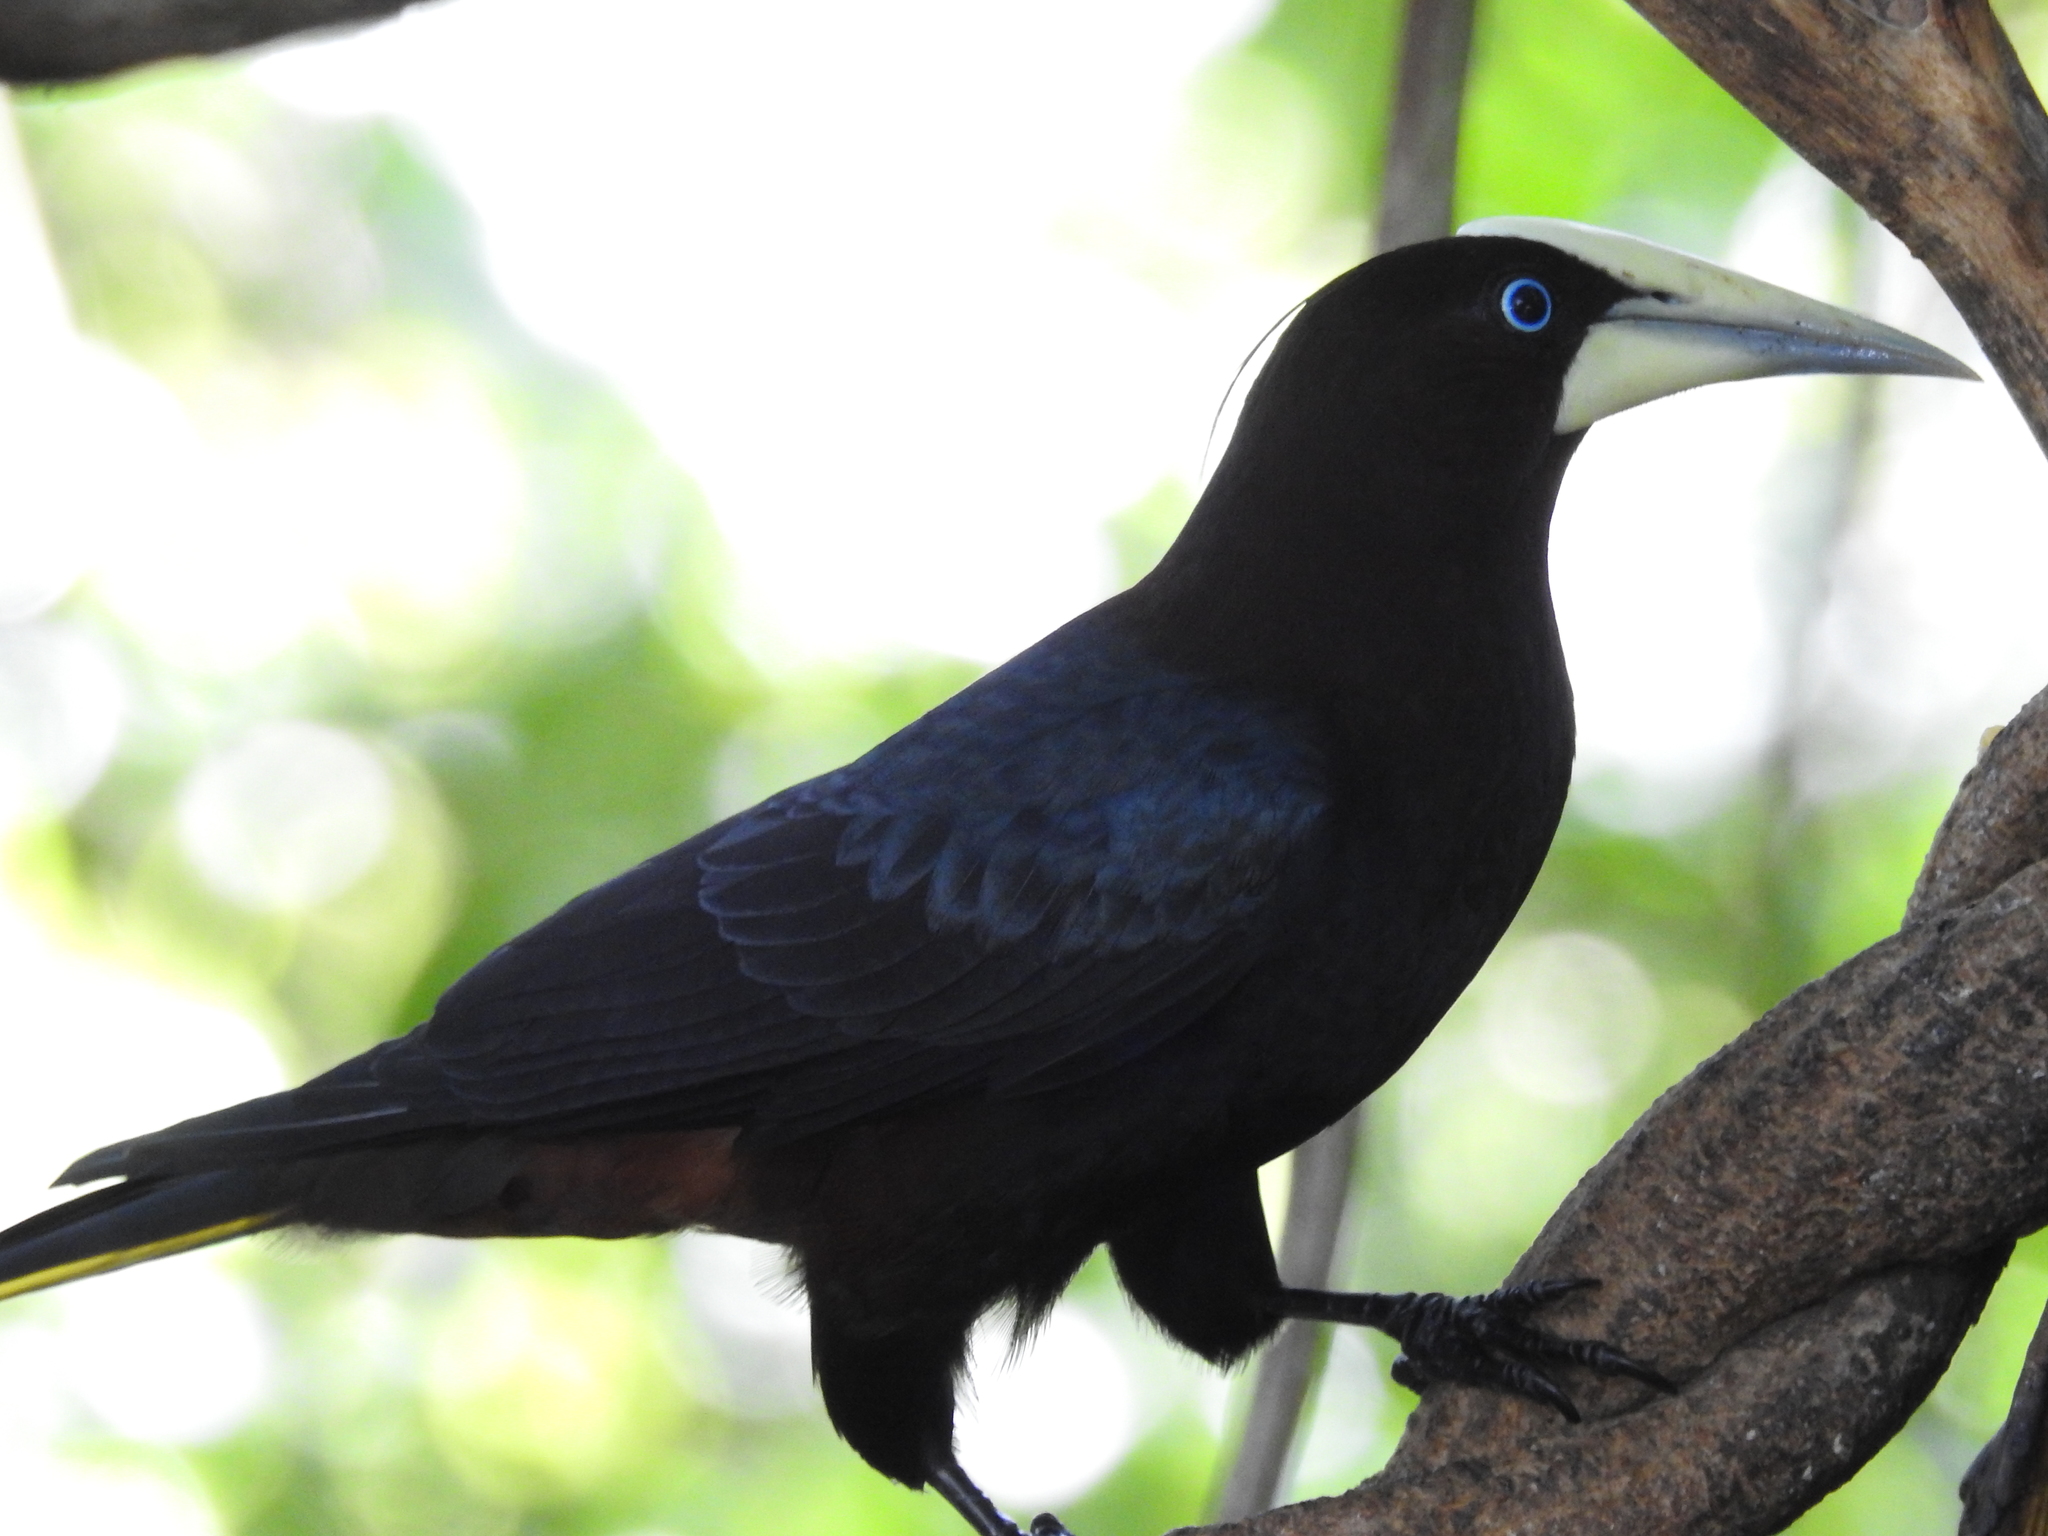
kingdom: Animalia
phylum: Chordata
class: Aves
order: Passeriformes
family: Icteridae
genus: Psarocolius
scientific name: Psarocolius wagleri
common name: Chestnut-headed oropendola
